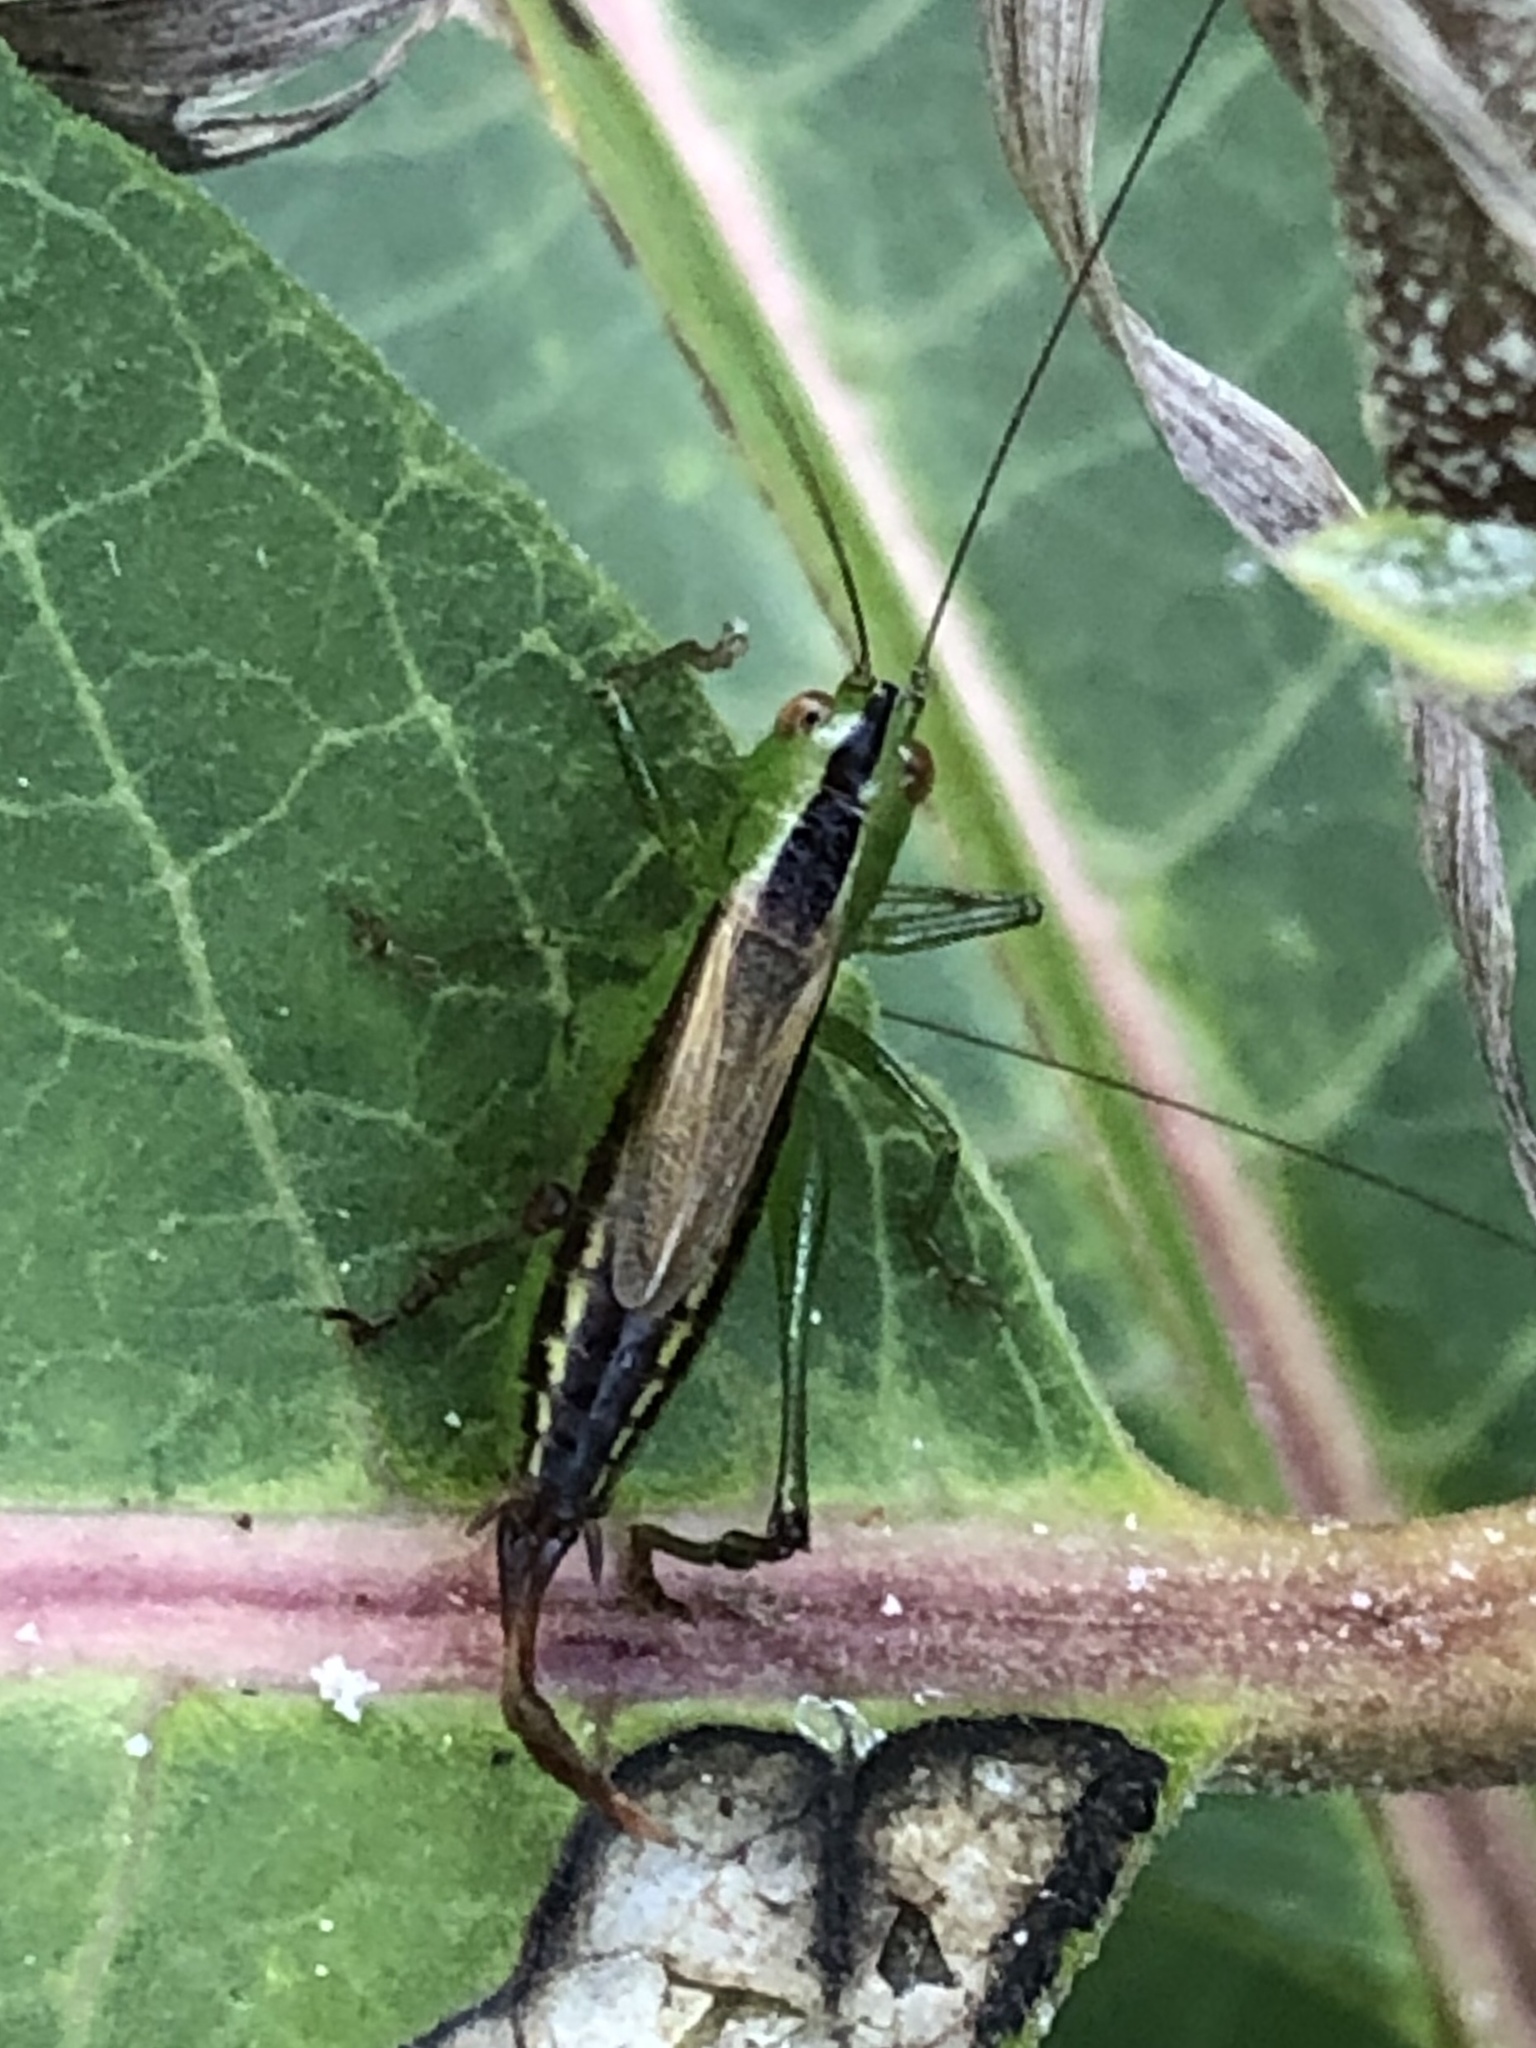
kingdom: Animalia
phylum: Arthropoda
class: Insecta
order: Orthoptera
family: Tettigoniidae
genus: Conocephalus
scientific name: Conocephalus brevipennis
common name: Short-winged meadow katydid
